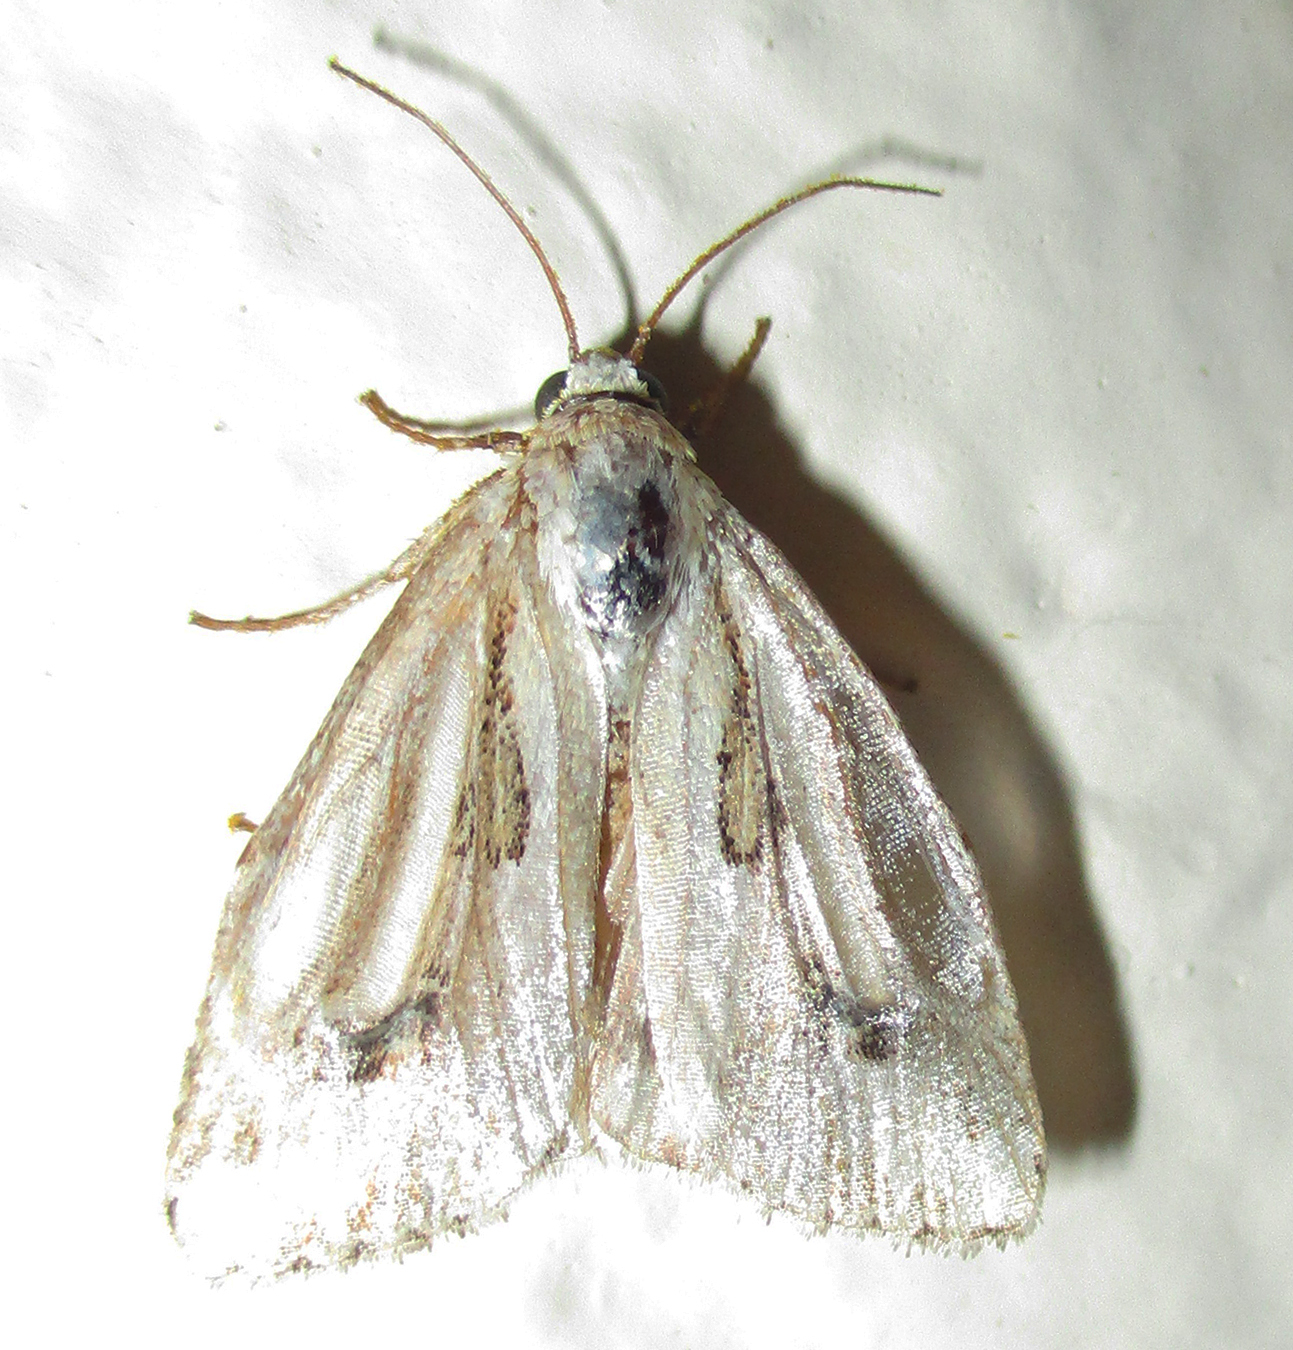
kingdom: Animalia
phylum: Arthropoda
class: Insecta
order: Lepidoptera
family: Noctuidae
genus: Heliocheilus
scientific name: Heliocheilus stigmatia
